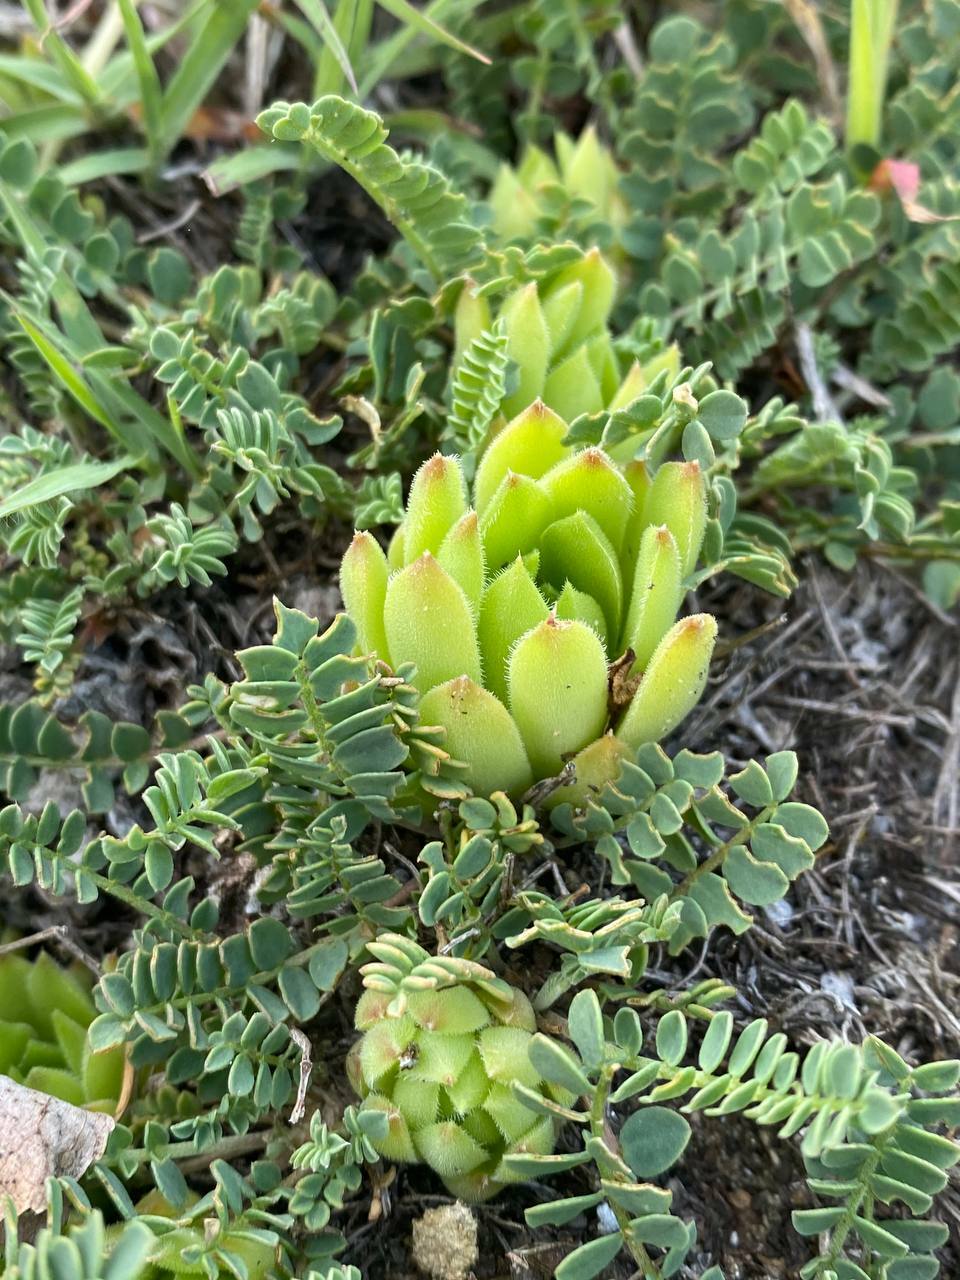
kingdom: Plantae
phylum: Tracheophyta
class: Magnoliopsida
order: Saxifragales
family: Crassulaceae
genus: Sempervivum
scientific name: Sempervivum caucasicum
